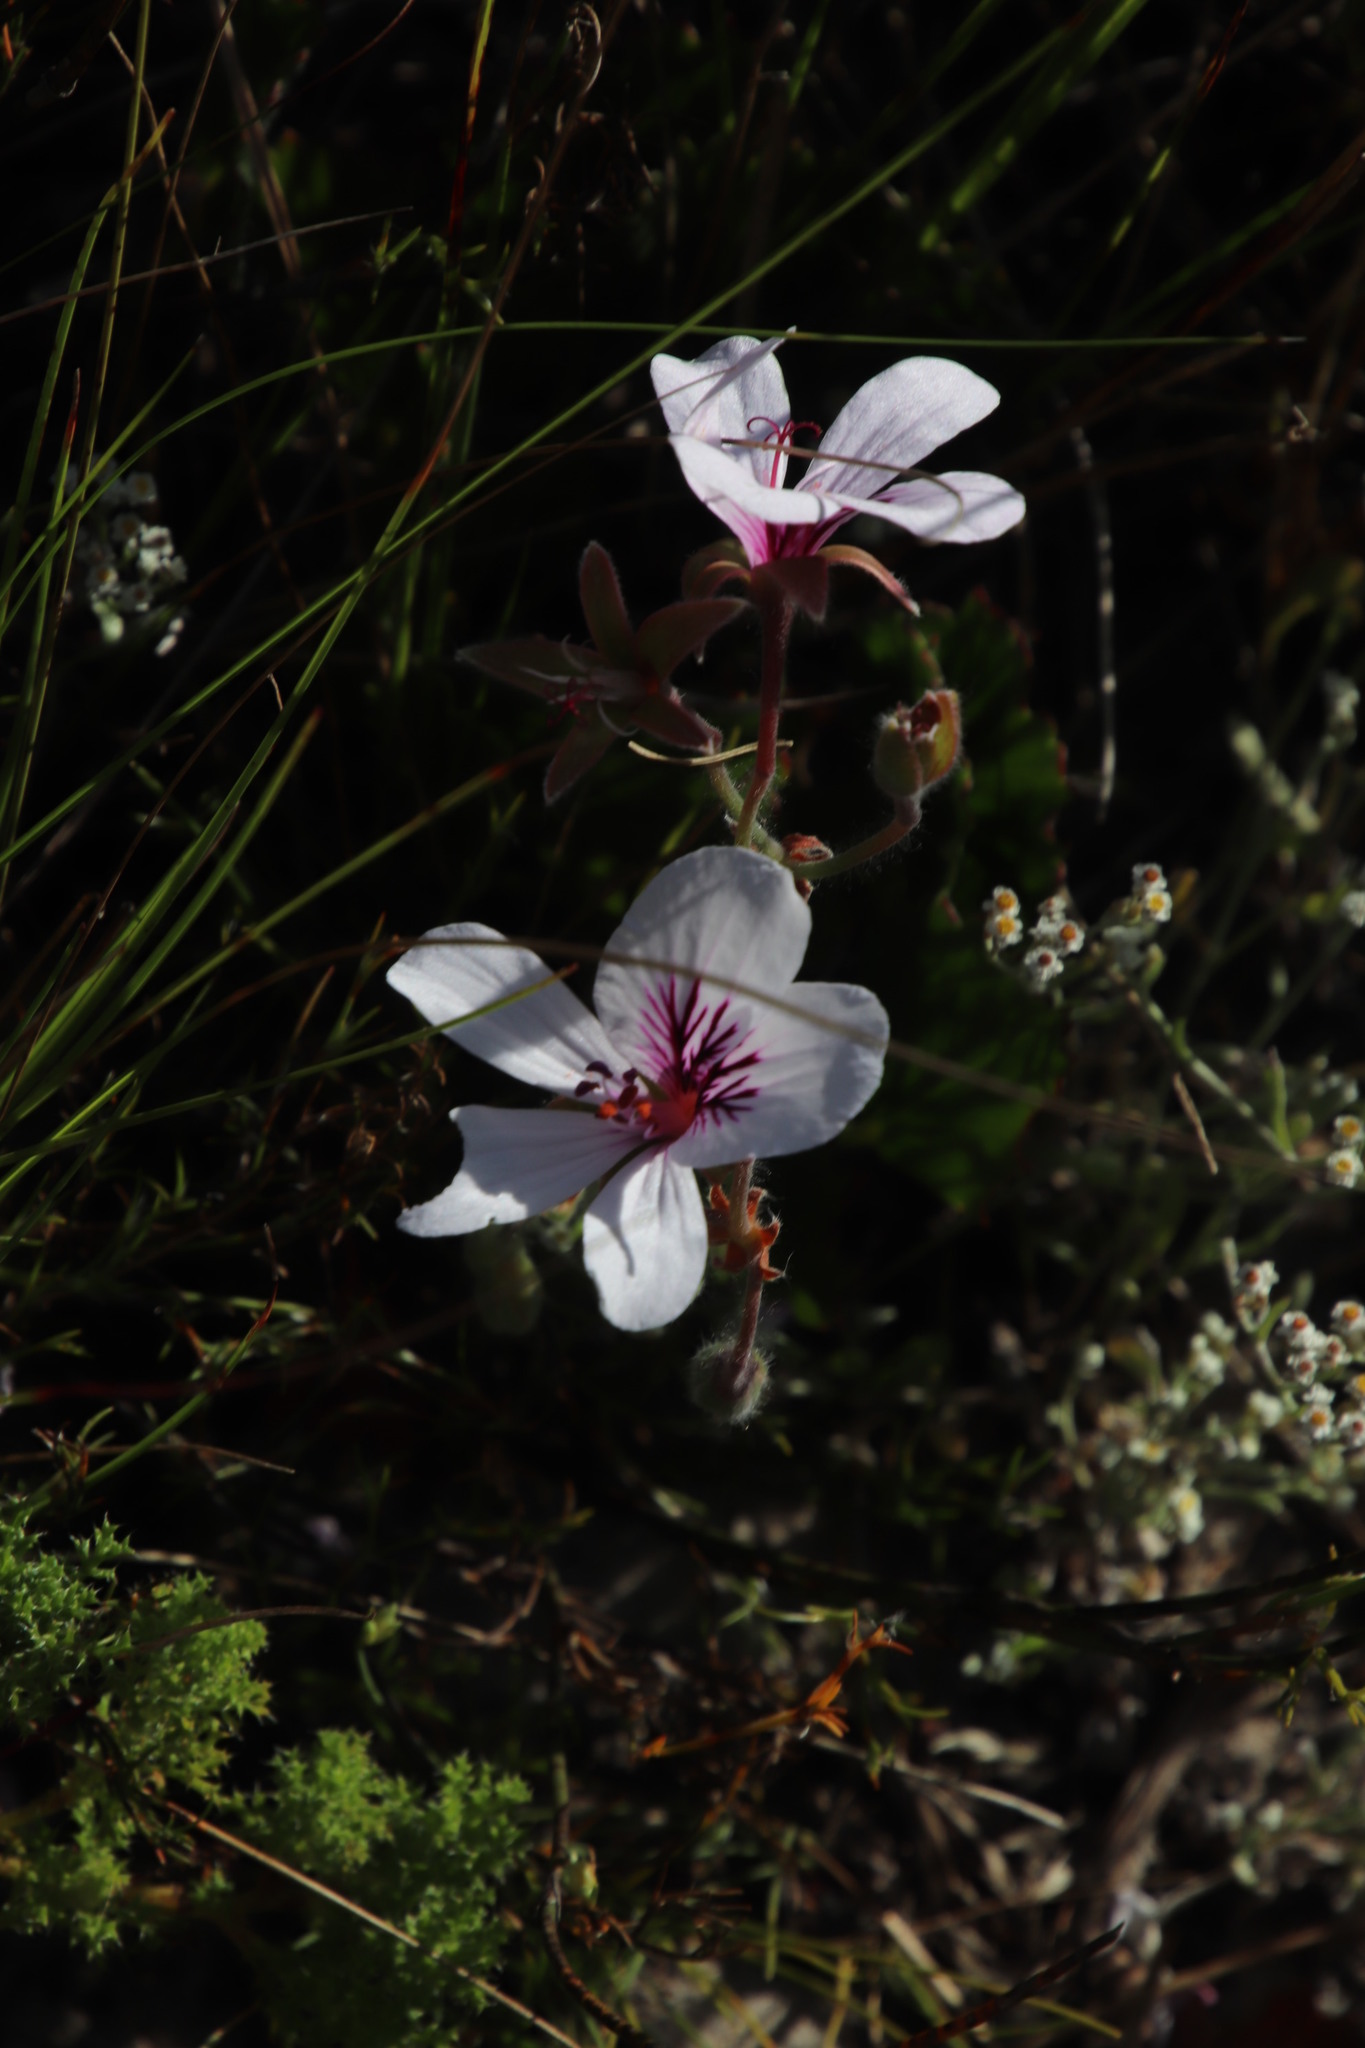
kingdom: Plantae
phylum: Tracheophyta
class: Magnoliopsida
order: Geraniales
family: Geraniaceae
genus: Pelargonium
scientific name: Pelargonium elegans
